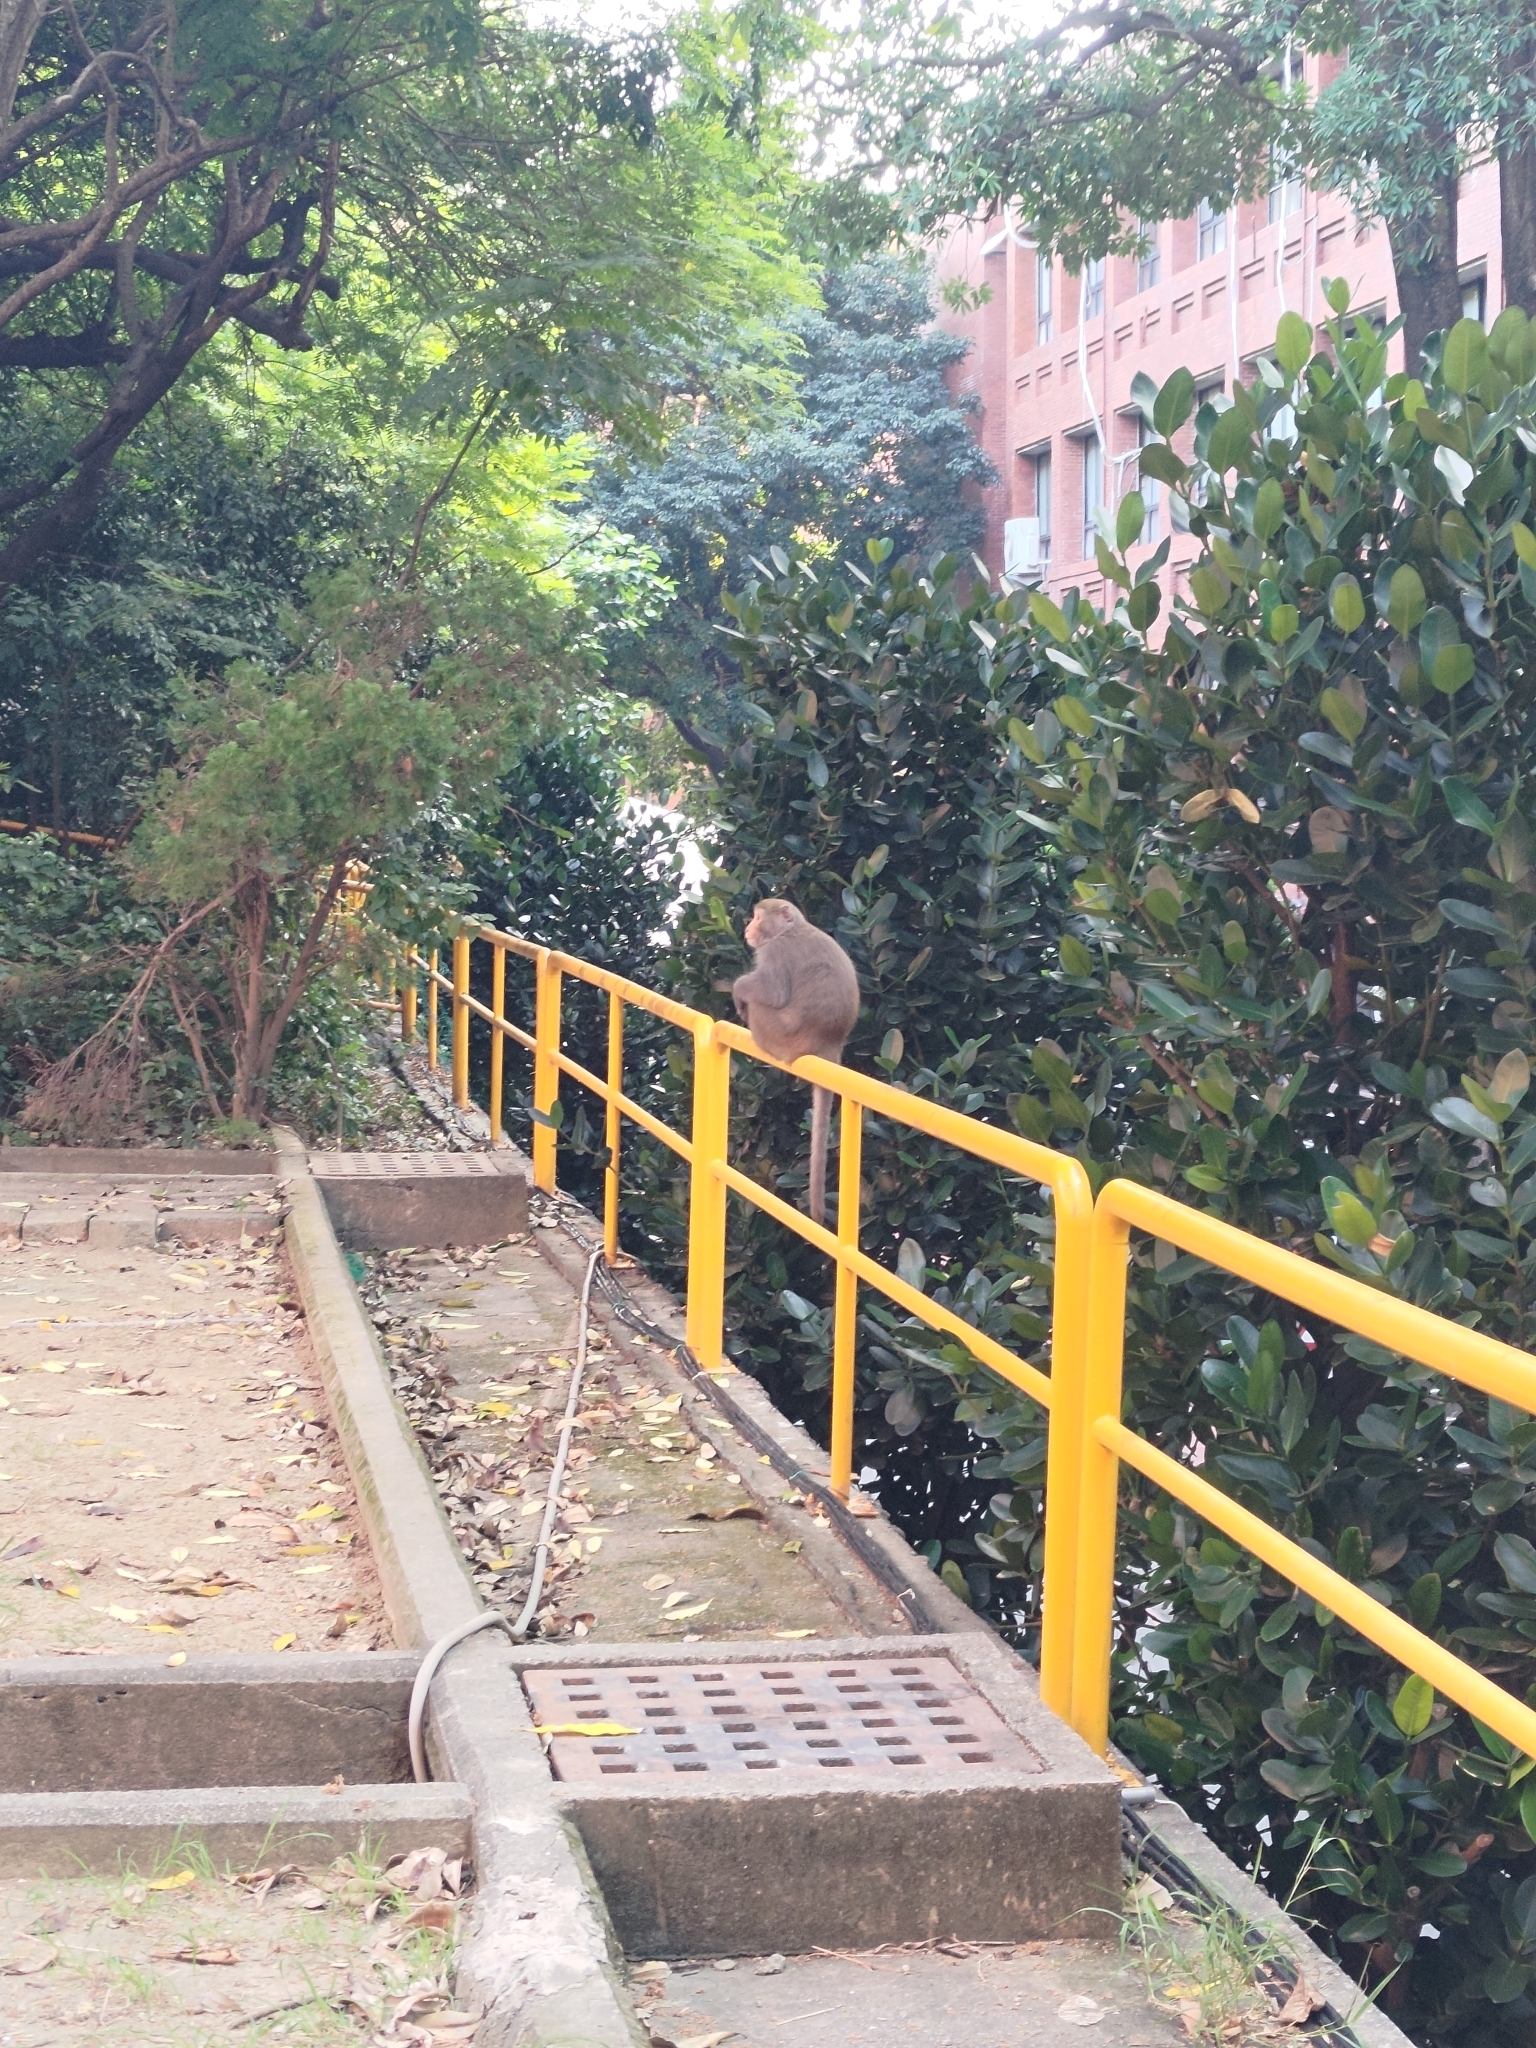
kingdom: Animalia
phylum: Chordata
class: Mammalia
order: Primates
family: Cercopithecidae
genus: Macaca
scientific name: Macaca cyclopis
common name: Formosan rock macaque
